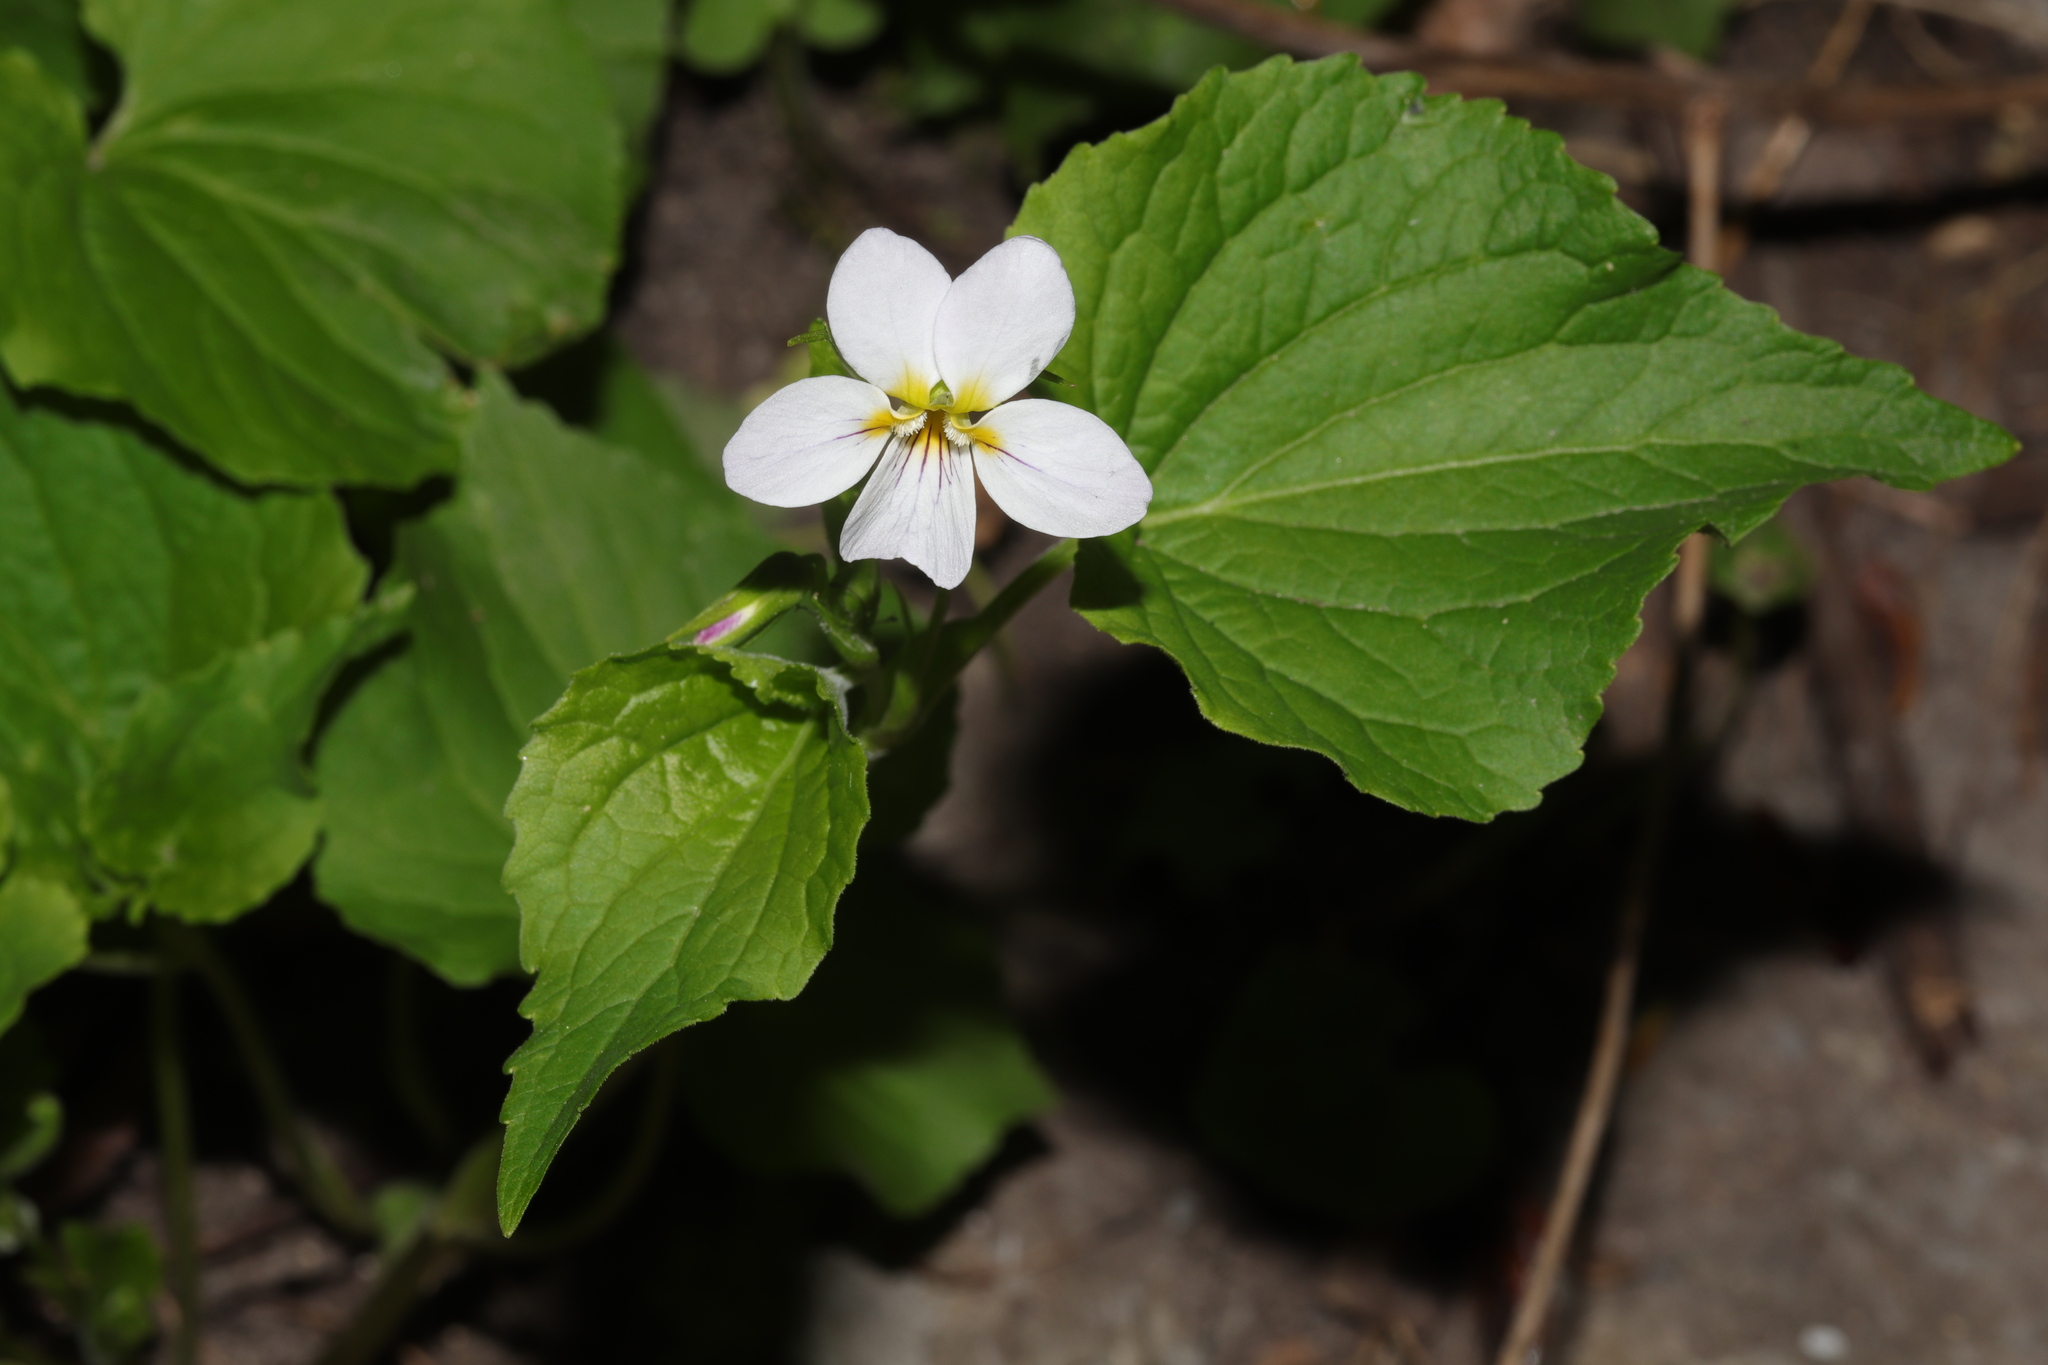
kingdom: Plantae
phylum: Tracheophyta
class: Magnoliopsida
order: Malpighiales
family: Violaceae
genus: Viola
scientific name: Viola canadensis
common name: Canada violet
